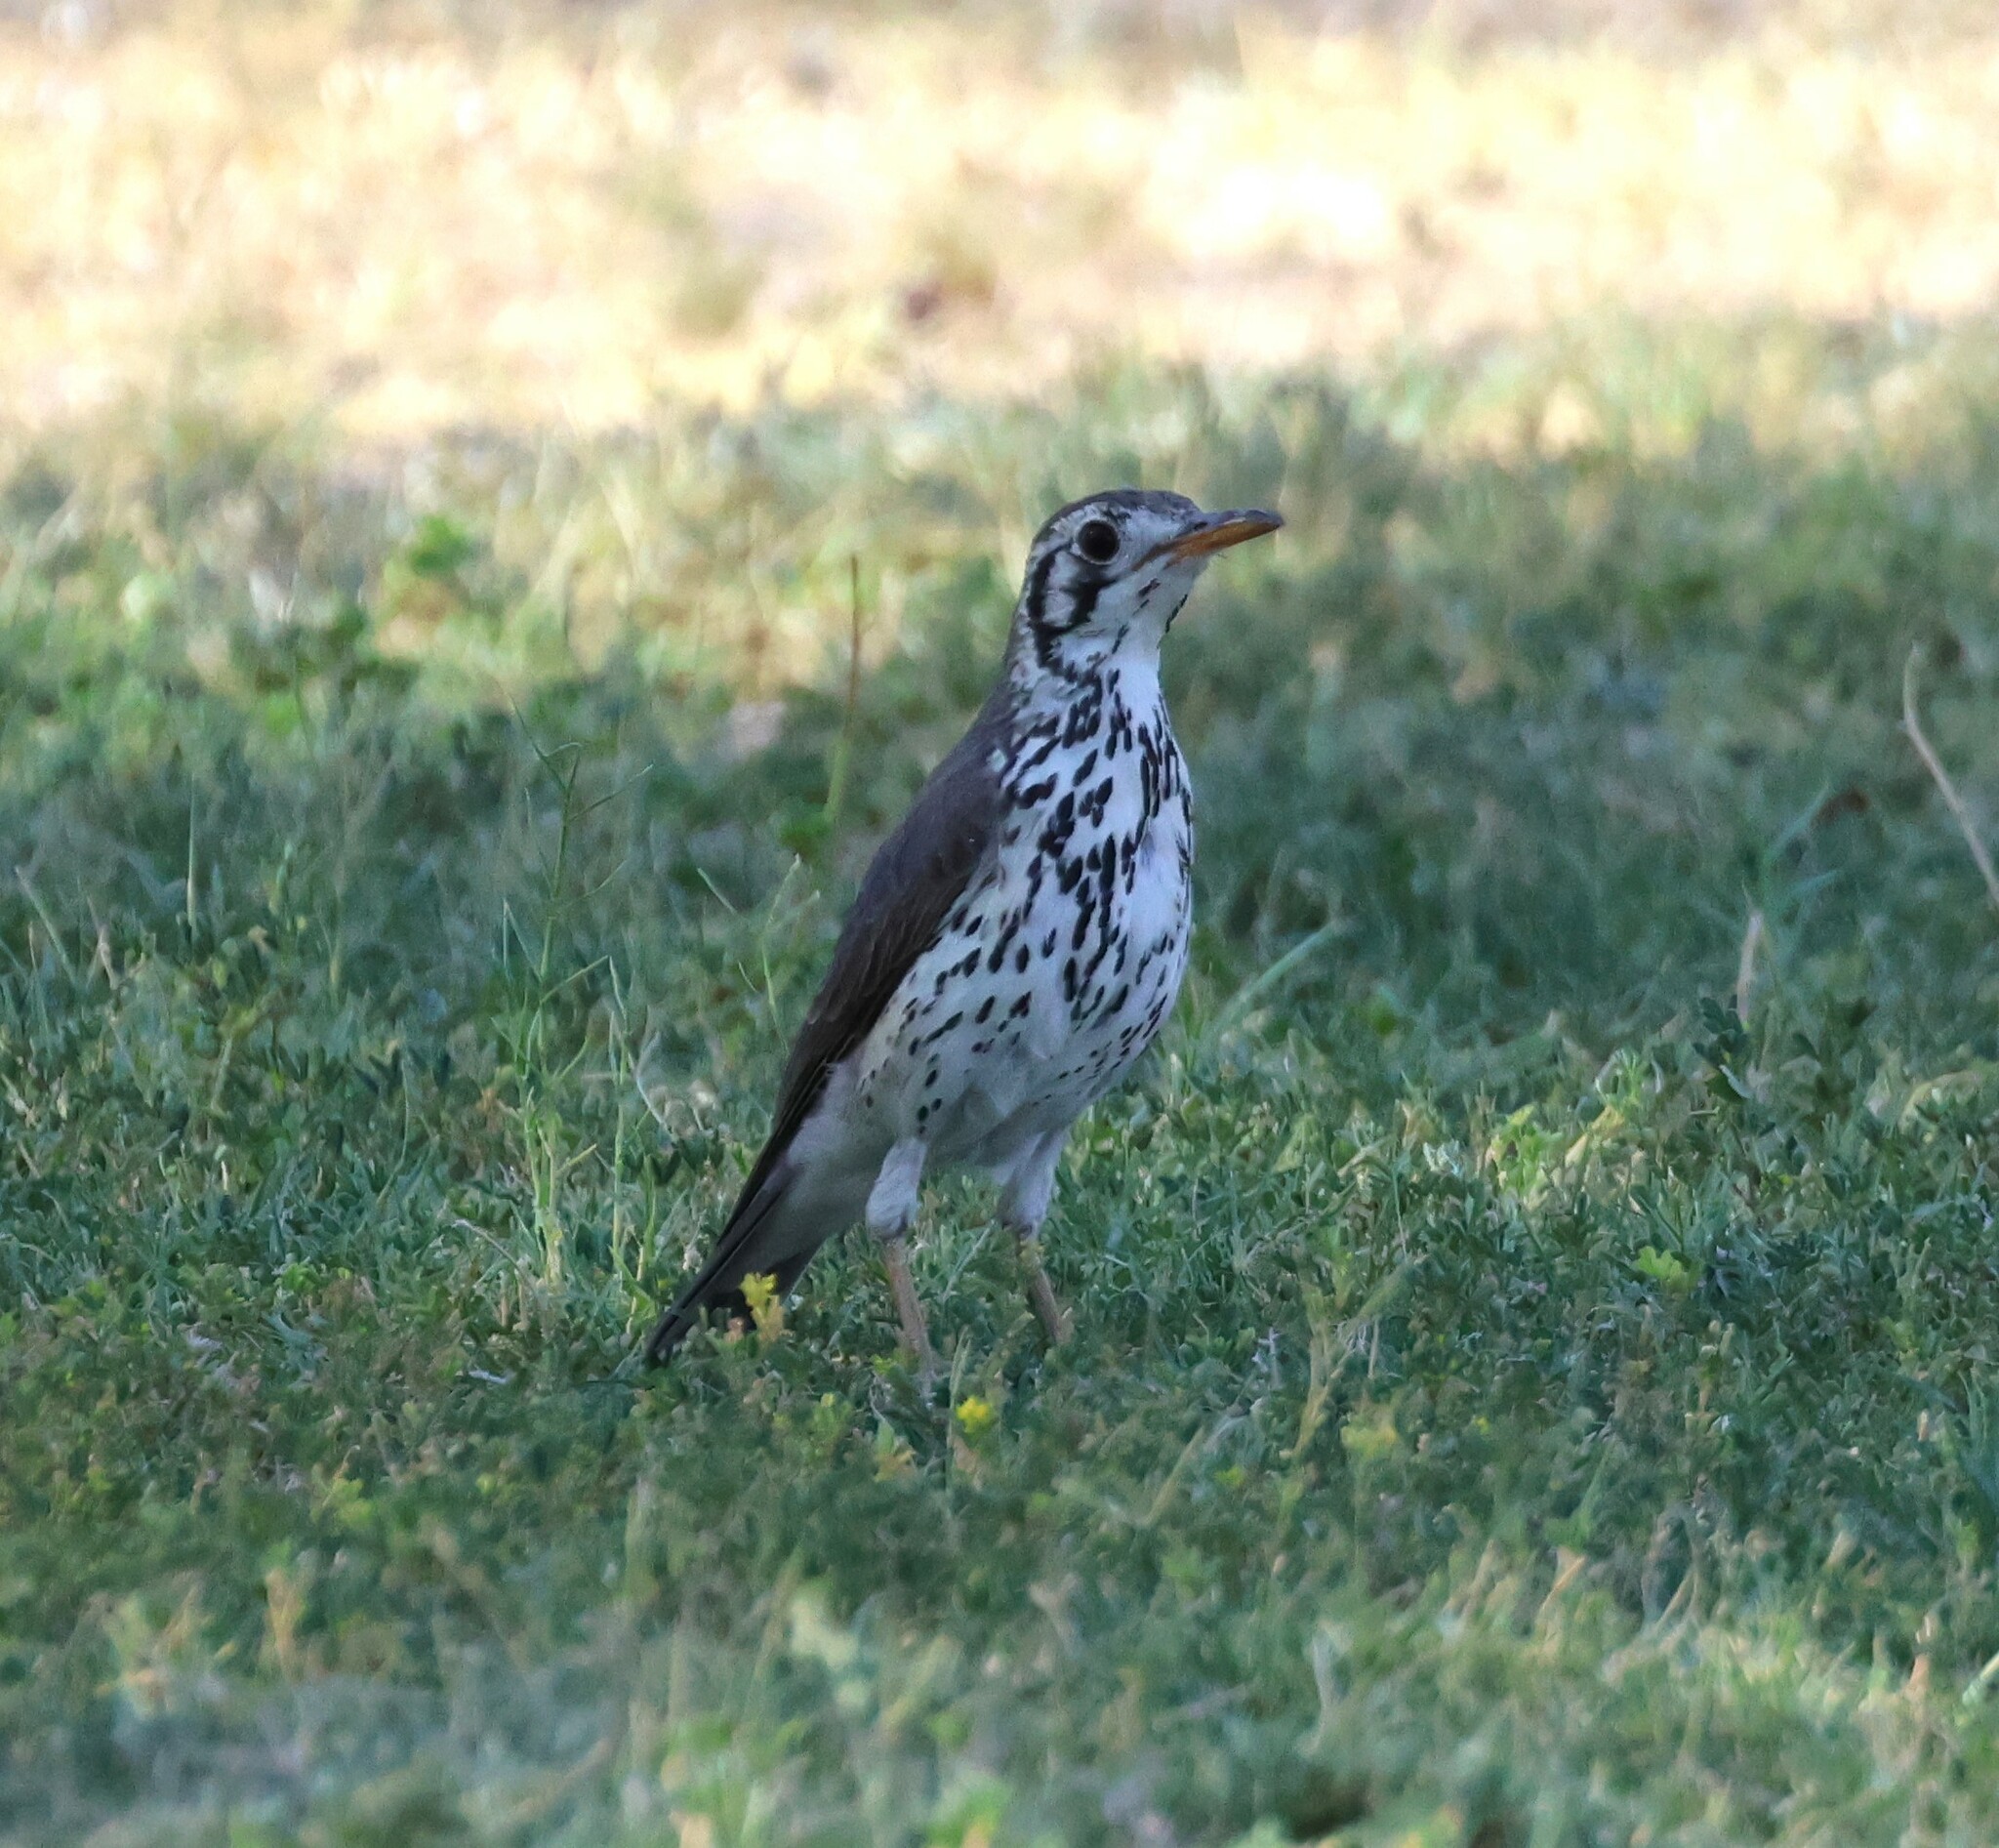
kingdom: Animalia
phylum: Chordata
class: Aves
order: Passeriformes
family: Turdidae
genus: Psophocichla
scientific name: Psophocichla litsitsirupa
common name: Groundscraper thrush
